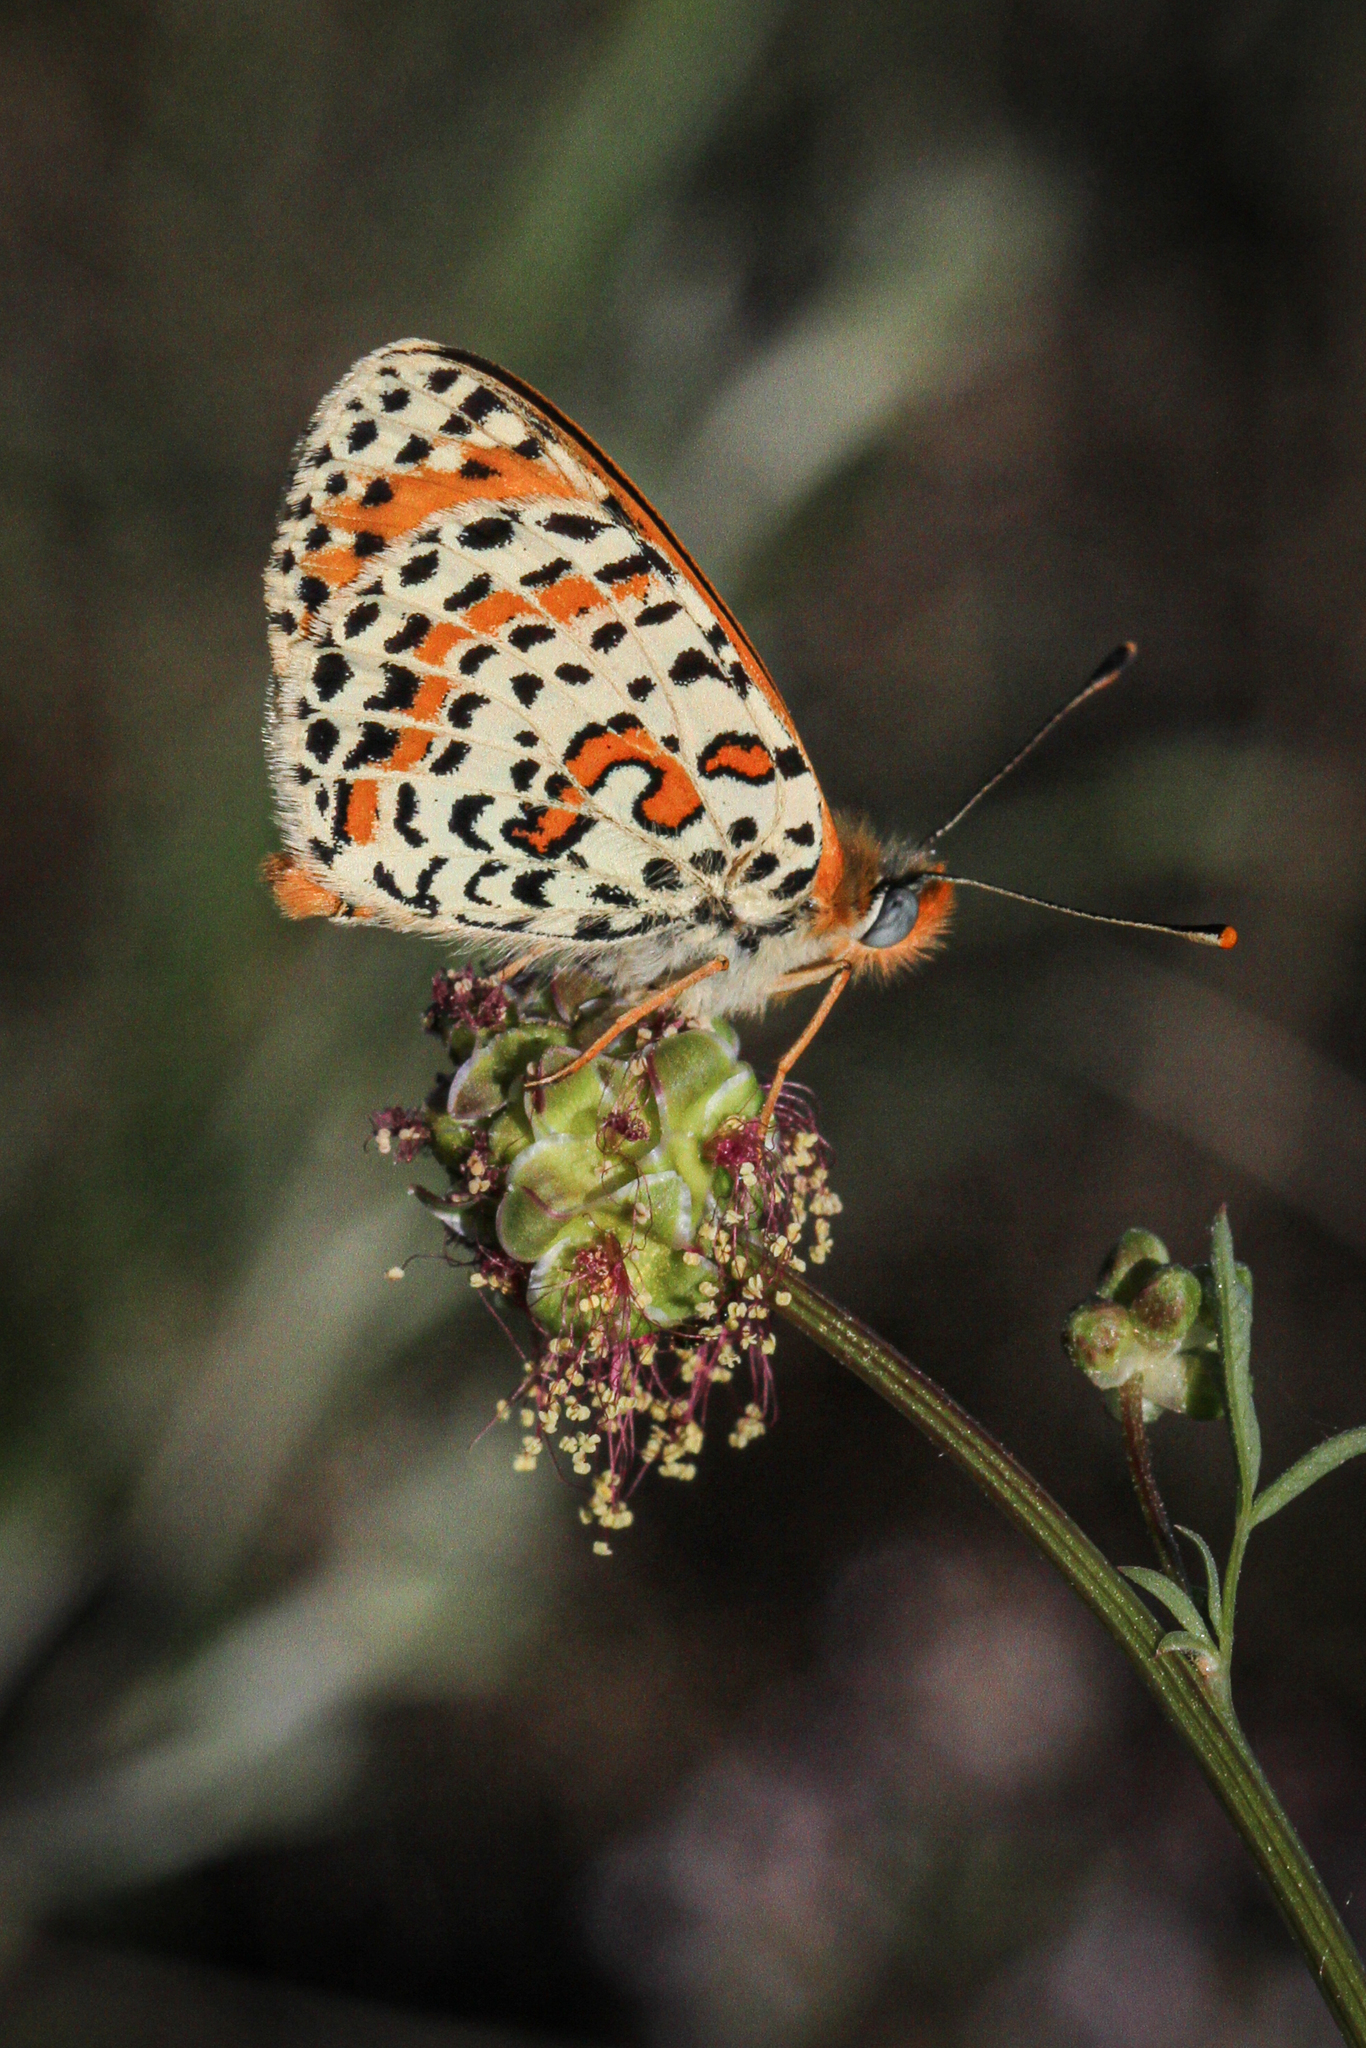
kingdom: Animalia
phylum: Arthropoda
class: Insecta
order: Lepidoptera
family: Nymphalidae
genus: Melitaea
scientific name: Melitaea didyma
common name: Spotted fritillary
